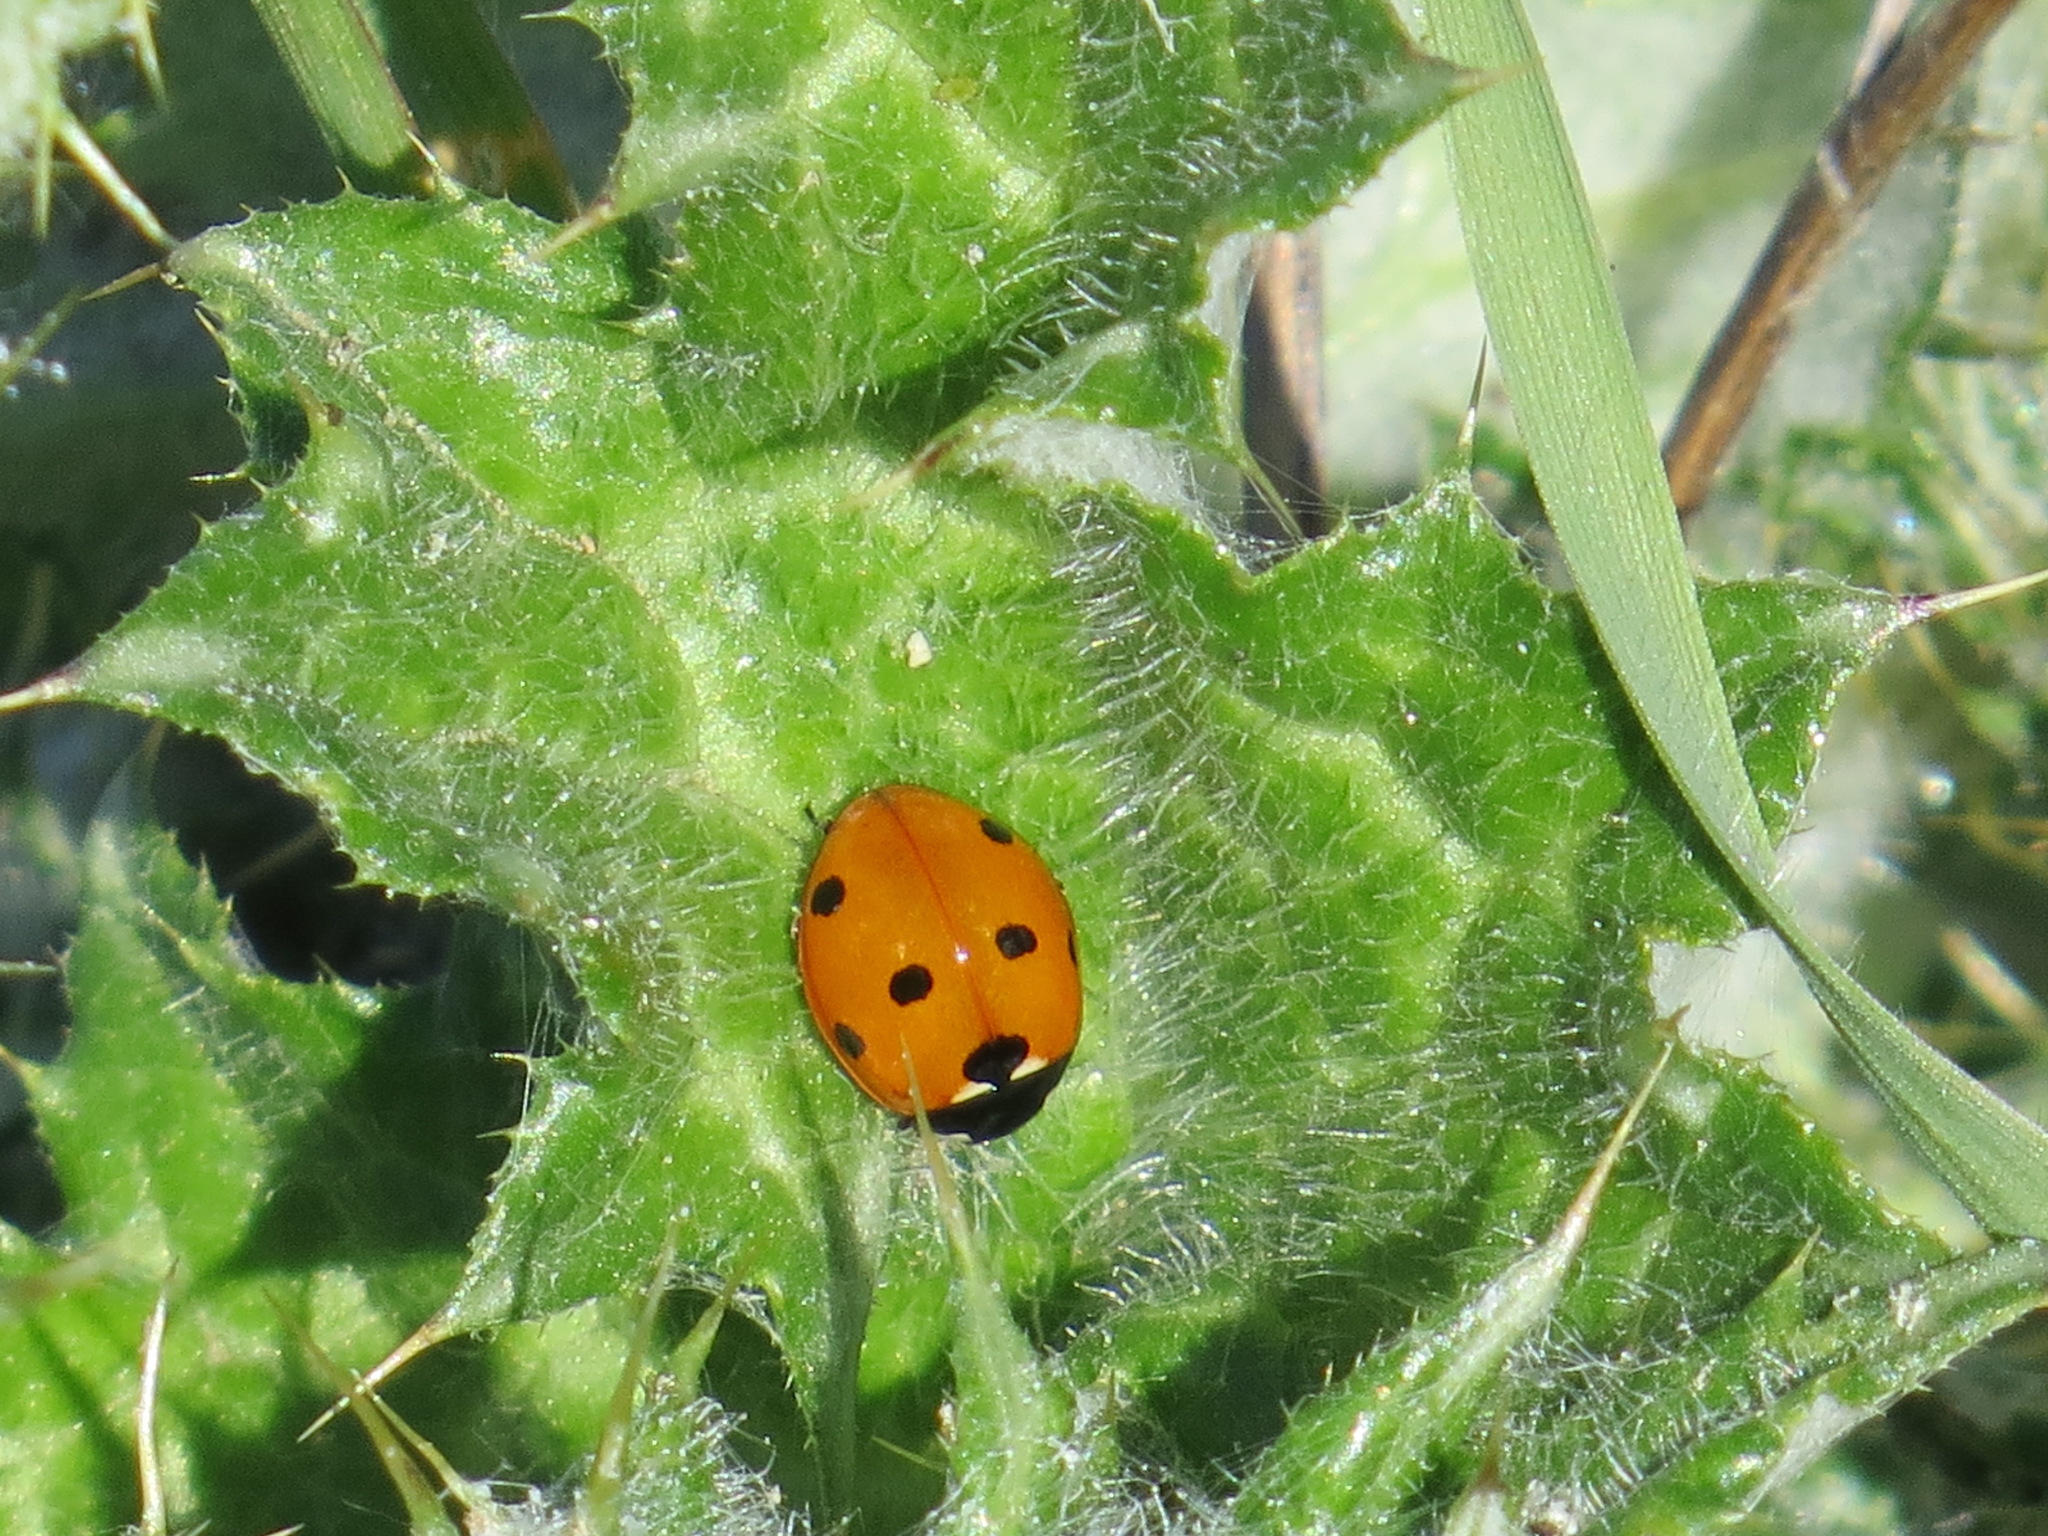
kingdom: Animalia
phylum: Arthropoda
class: Insecta
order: Coleoptera
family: Coccinellidae
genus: Coccinella
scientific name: Coccinella septempunctata
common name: Sevenspotted lady beetle
